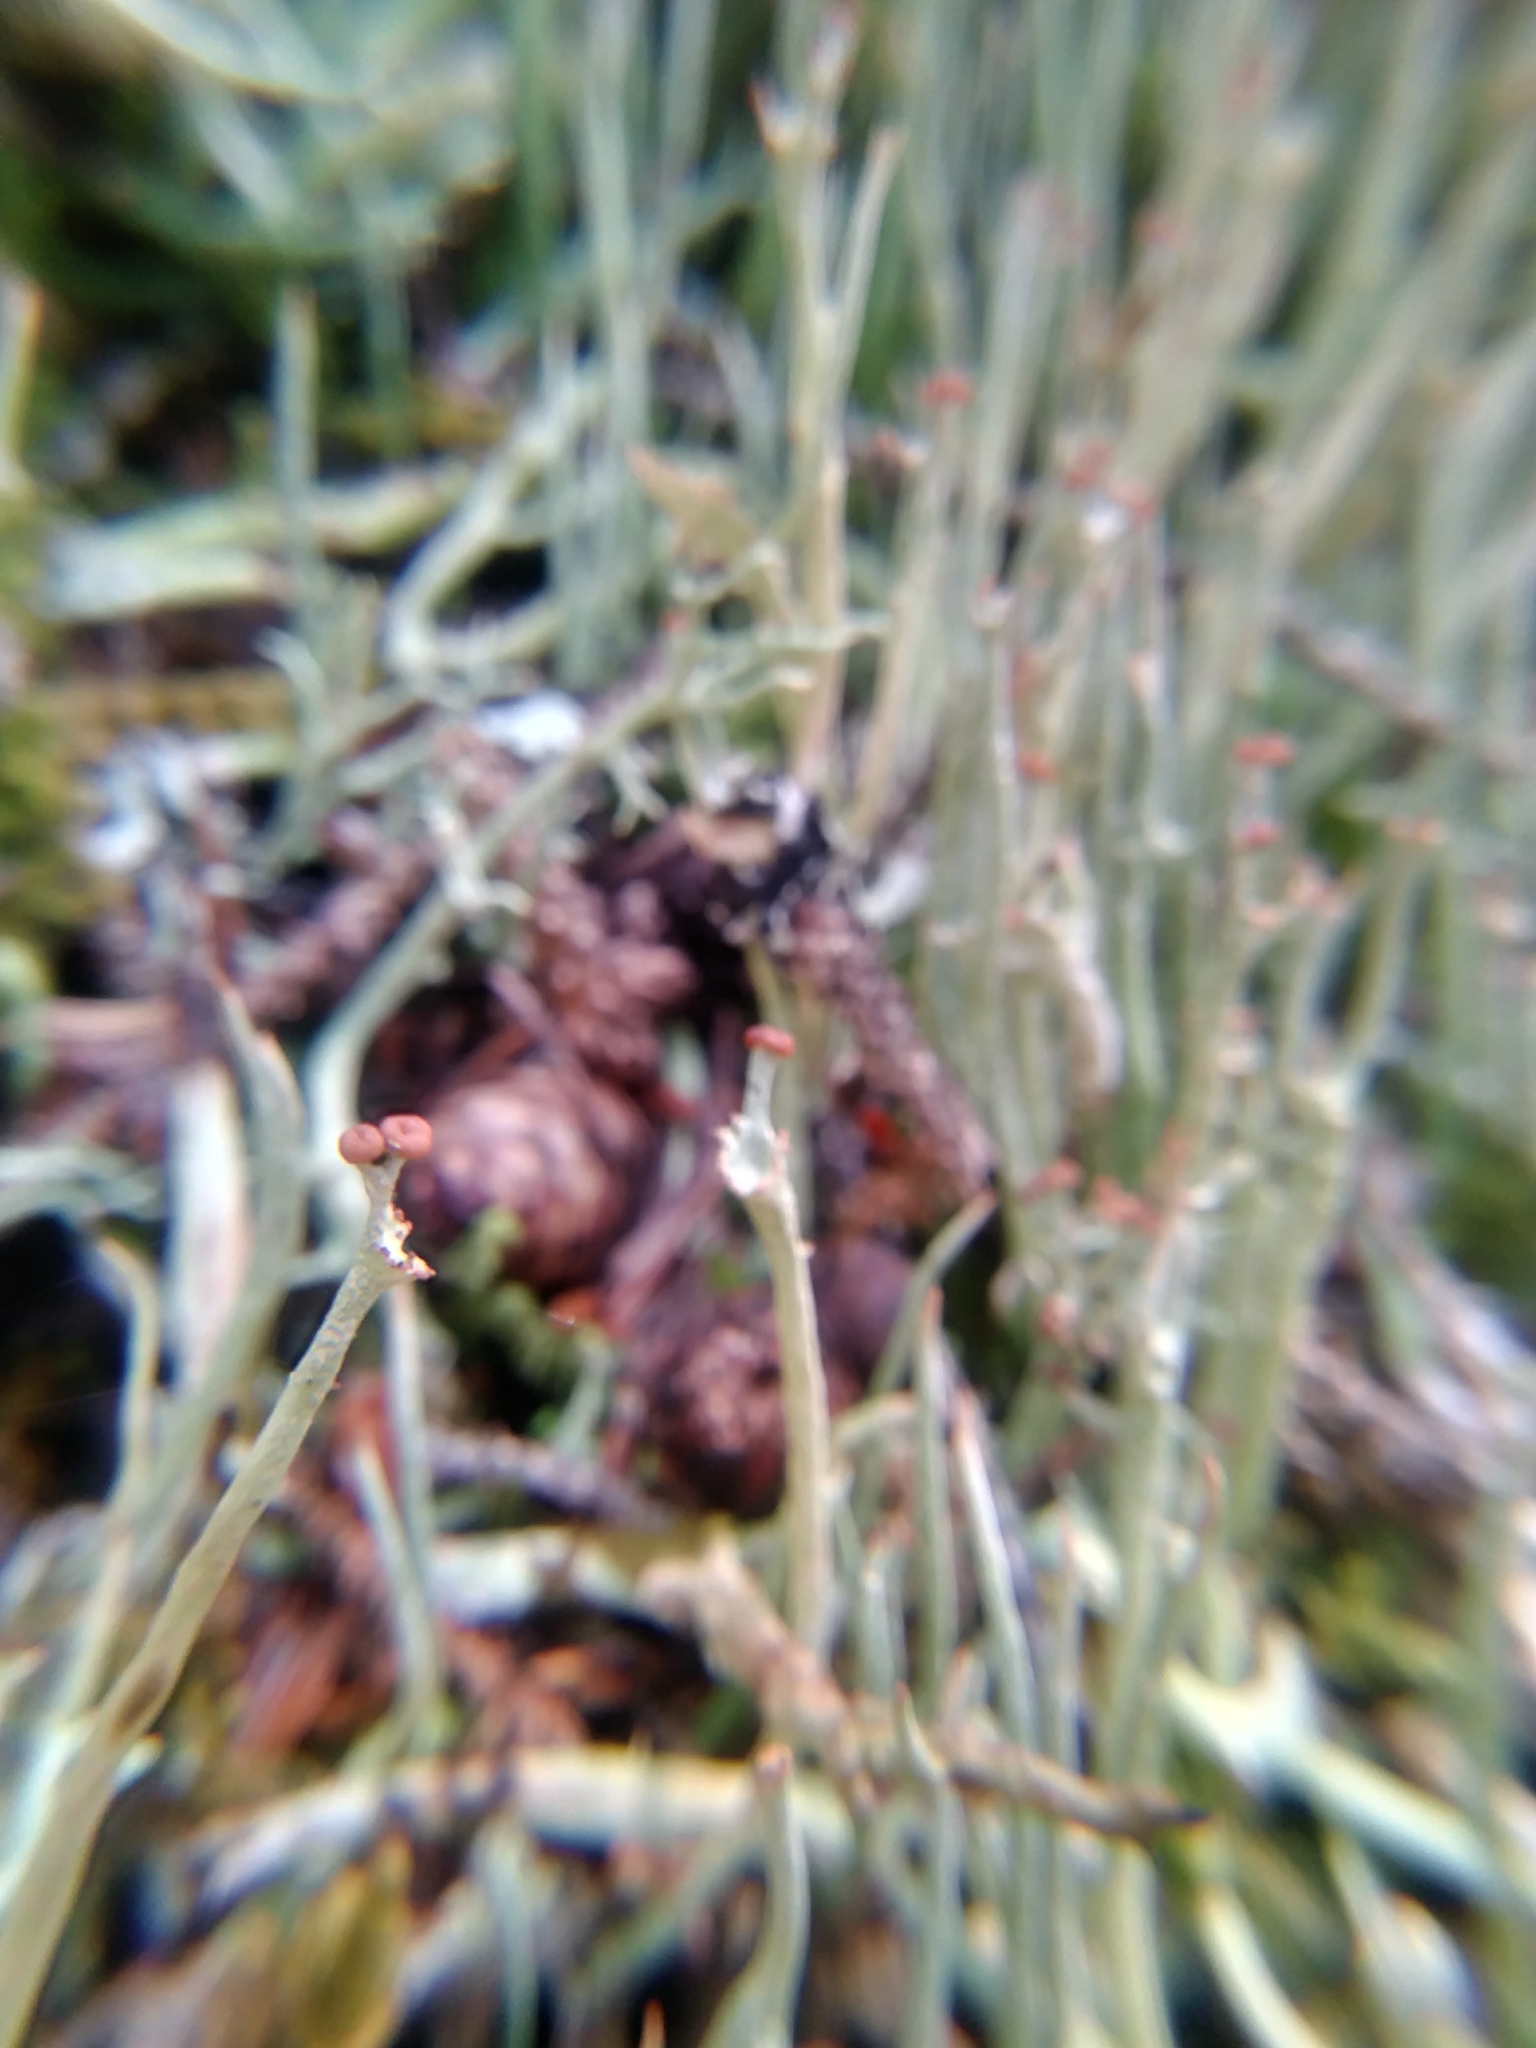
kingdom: Fungi
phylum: Ascomycota
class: Lecanoromycetes
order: Lecanorales
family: Cladoniaceae
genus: Cladonia
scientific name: Cladonia maxima
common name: Giant cladonia lichen
